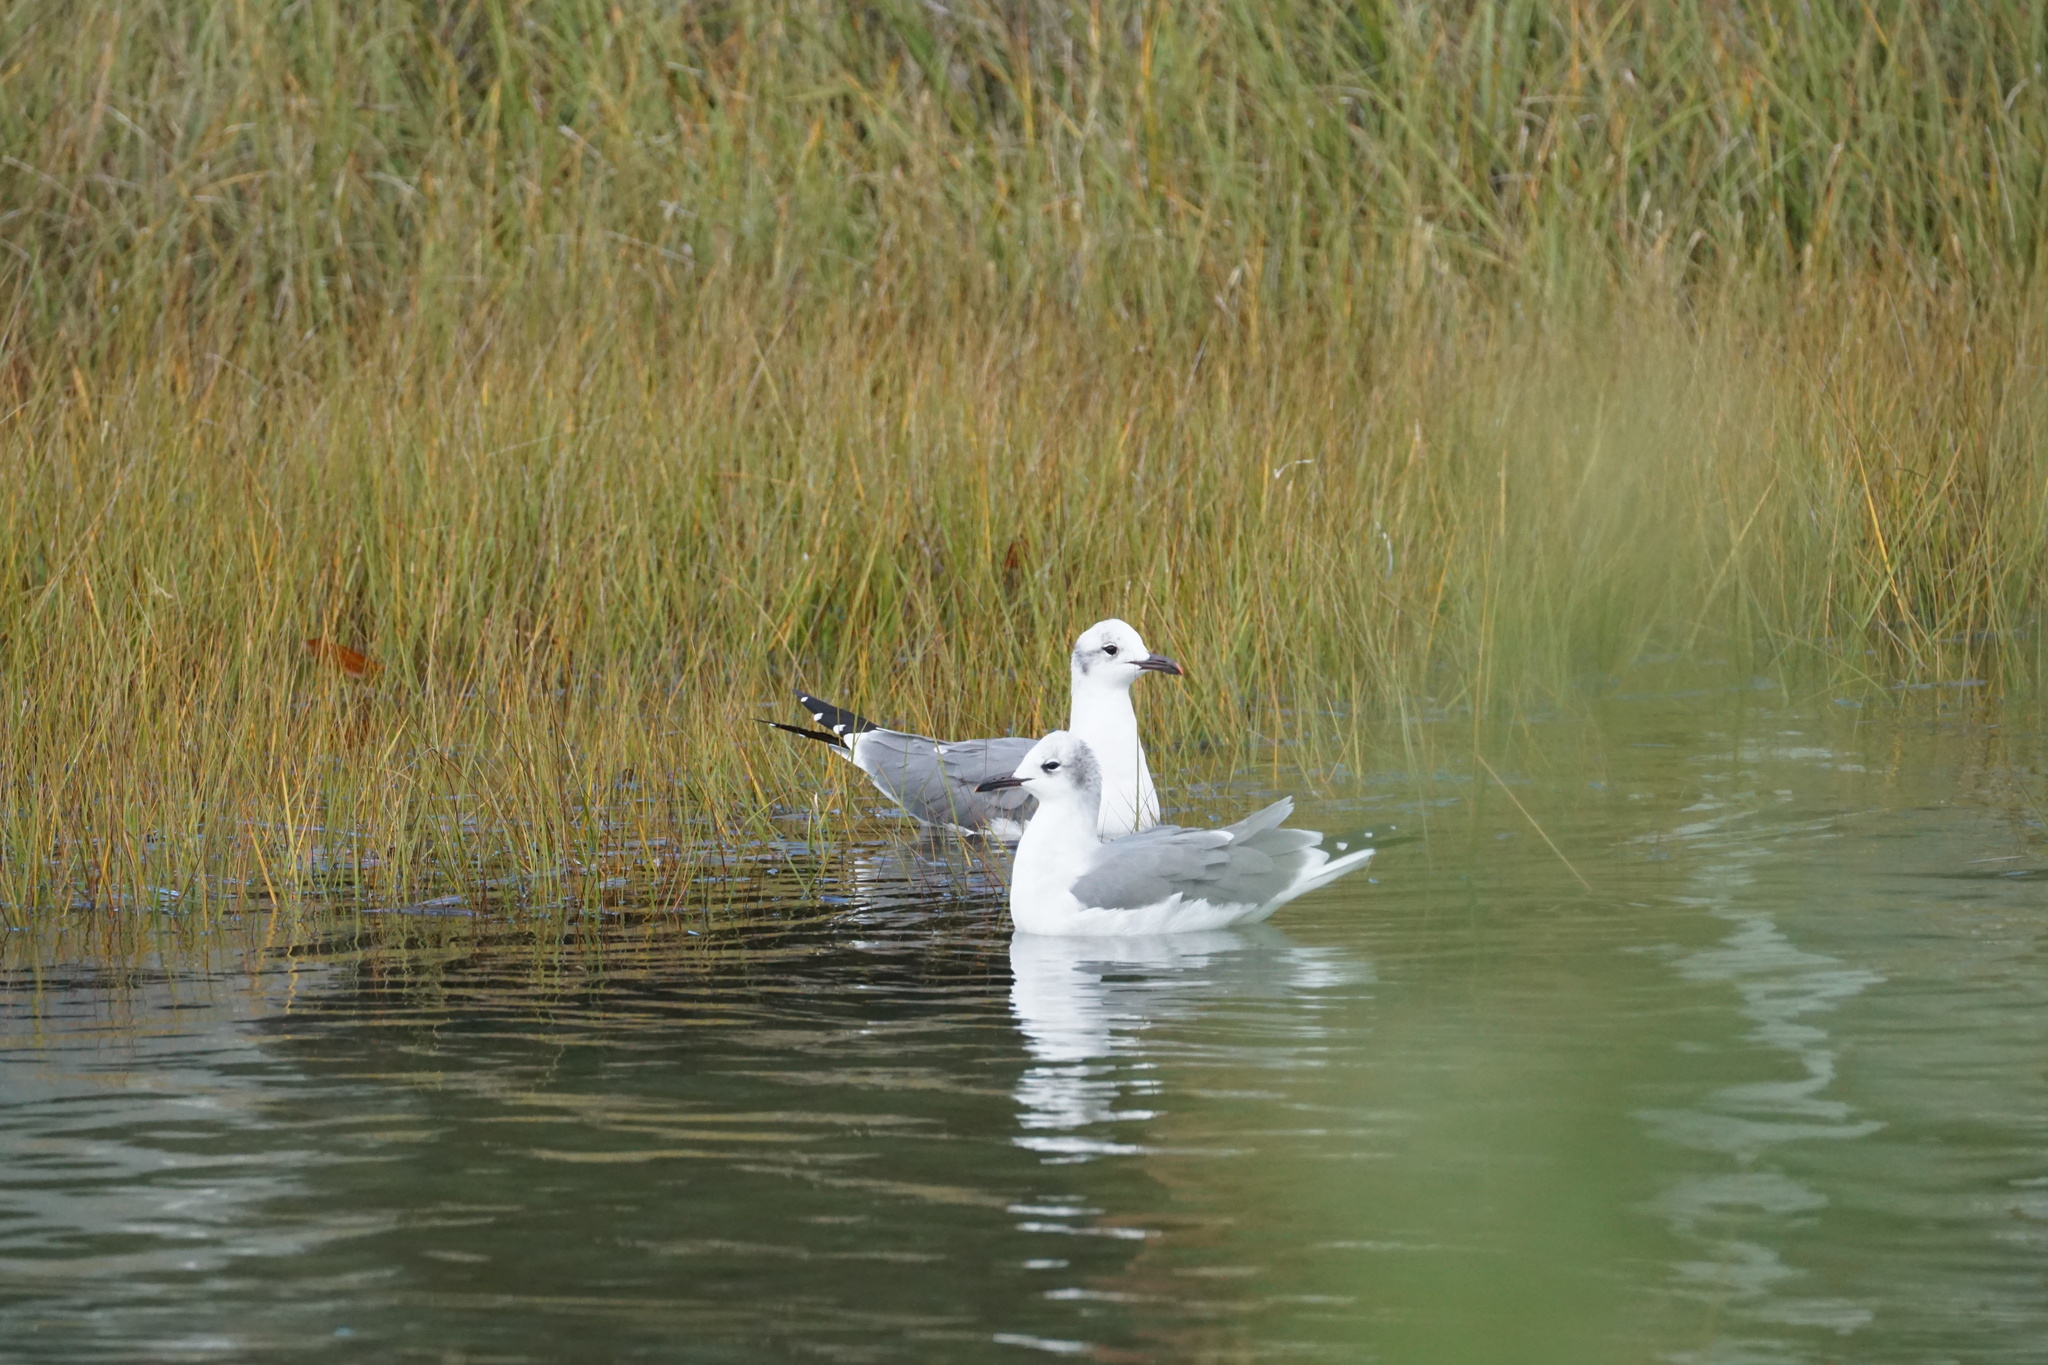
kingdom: Animalia
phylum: Chordata
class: Aves
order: Charadriiformes
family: Laridae
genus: Leucophaeus
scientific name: Leucophaeus atricilla
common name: Laughing gull
